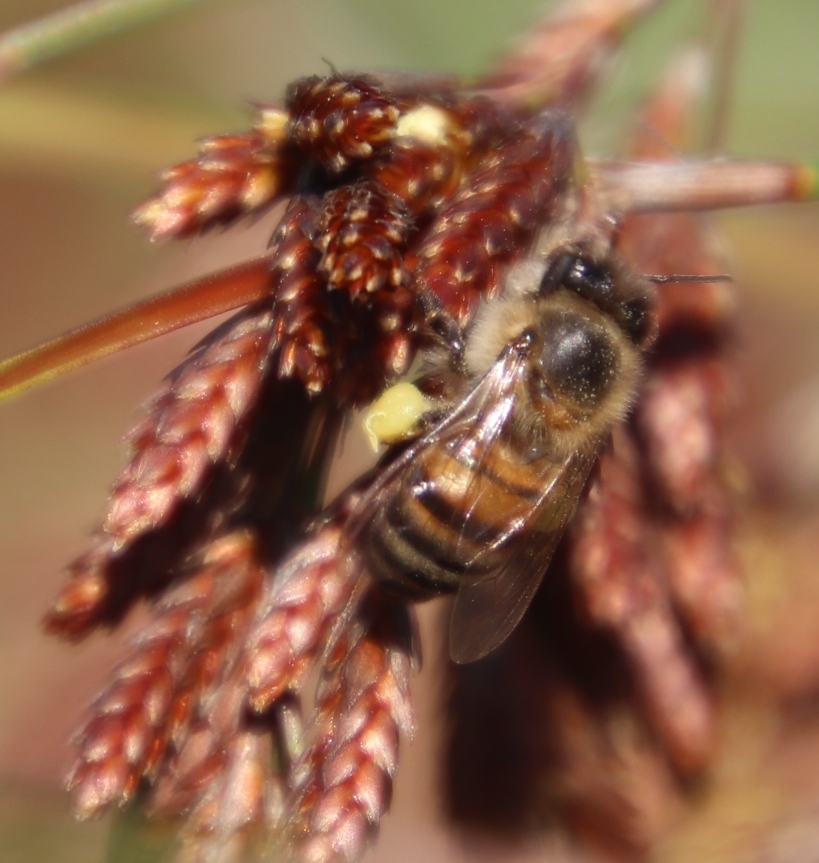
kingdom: Animalia
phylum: Arthropoda
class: Insecta
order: Hymenoptera
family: Apidae
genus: Apis
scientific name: Apis mellifera
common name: Honey bee
